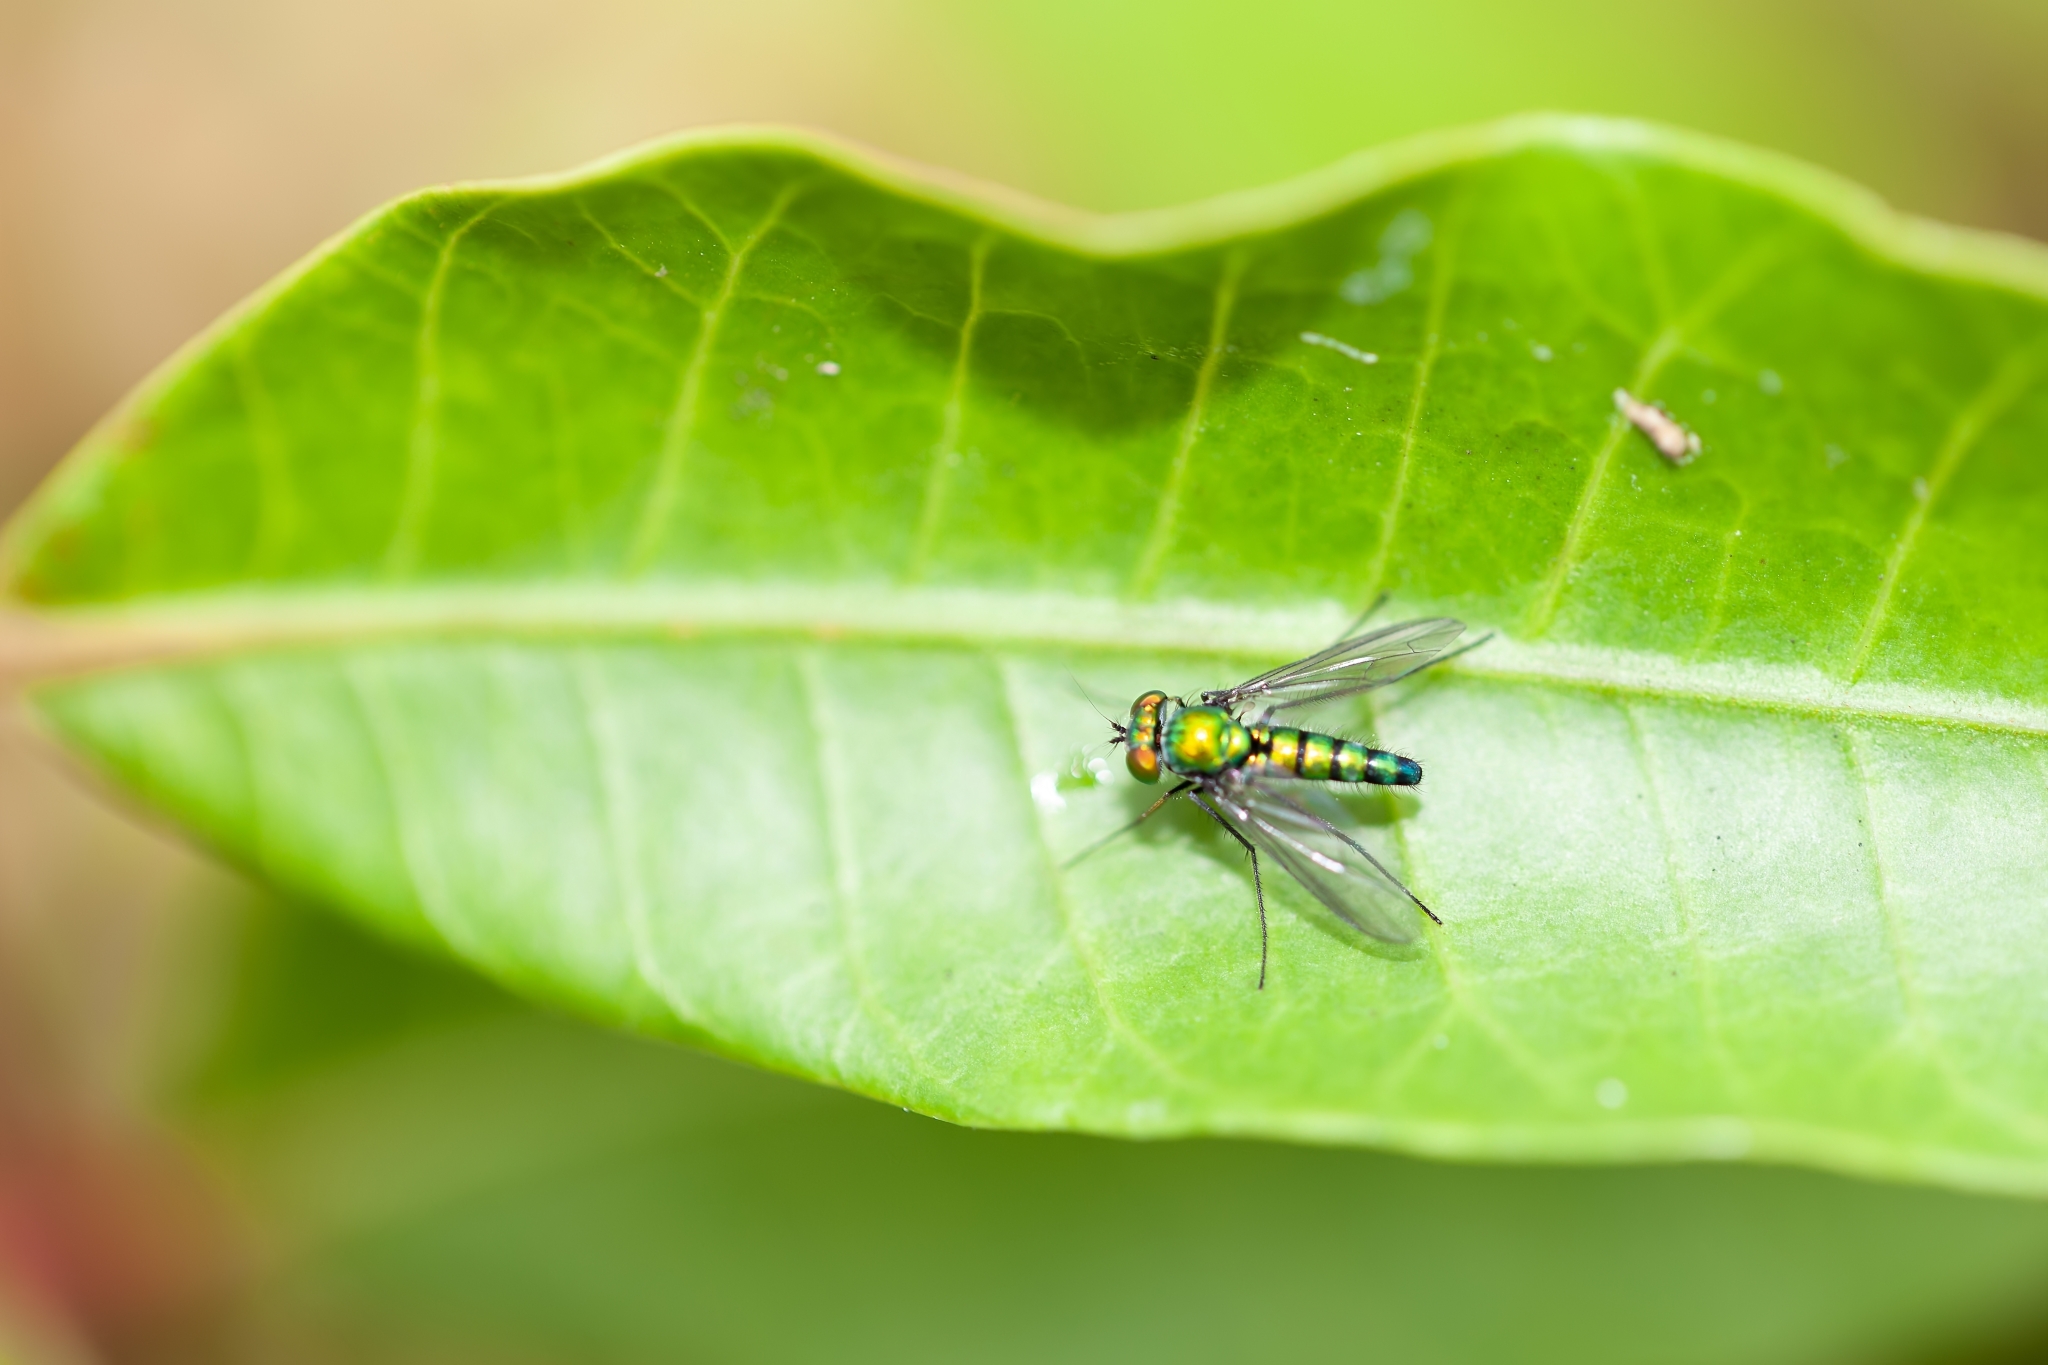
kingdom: Animalia
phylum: Arthropoda
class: Insecta
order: Diptera
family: Dolichopodidae
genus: Condylostylus
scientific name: Condylostylus longicornis
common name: Long-legged fly
